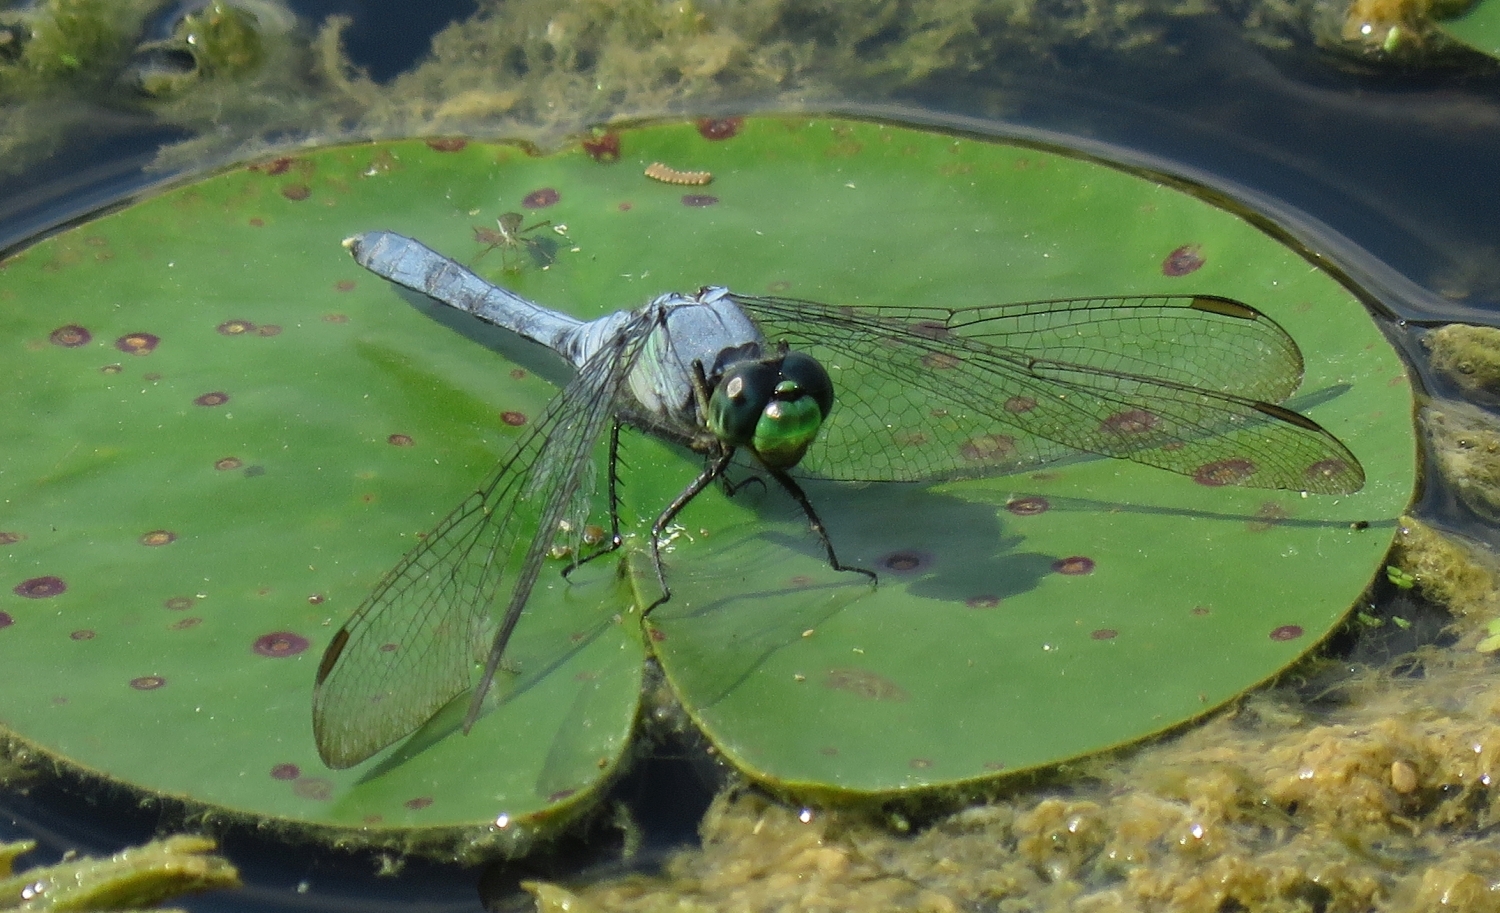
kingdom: Animalia
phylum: Arthropoda
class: Insecta
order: Odonata
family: Libellulidae
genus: Erythemis
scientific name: Erythemis simplicicollis
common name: Eastern pondhawk
